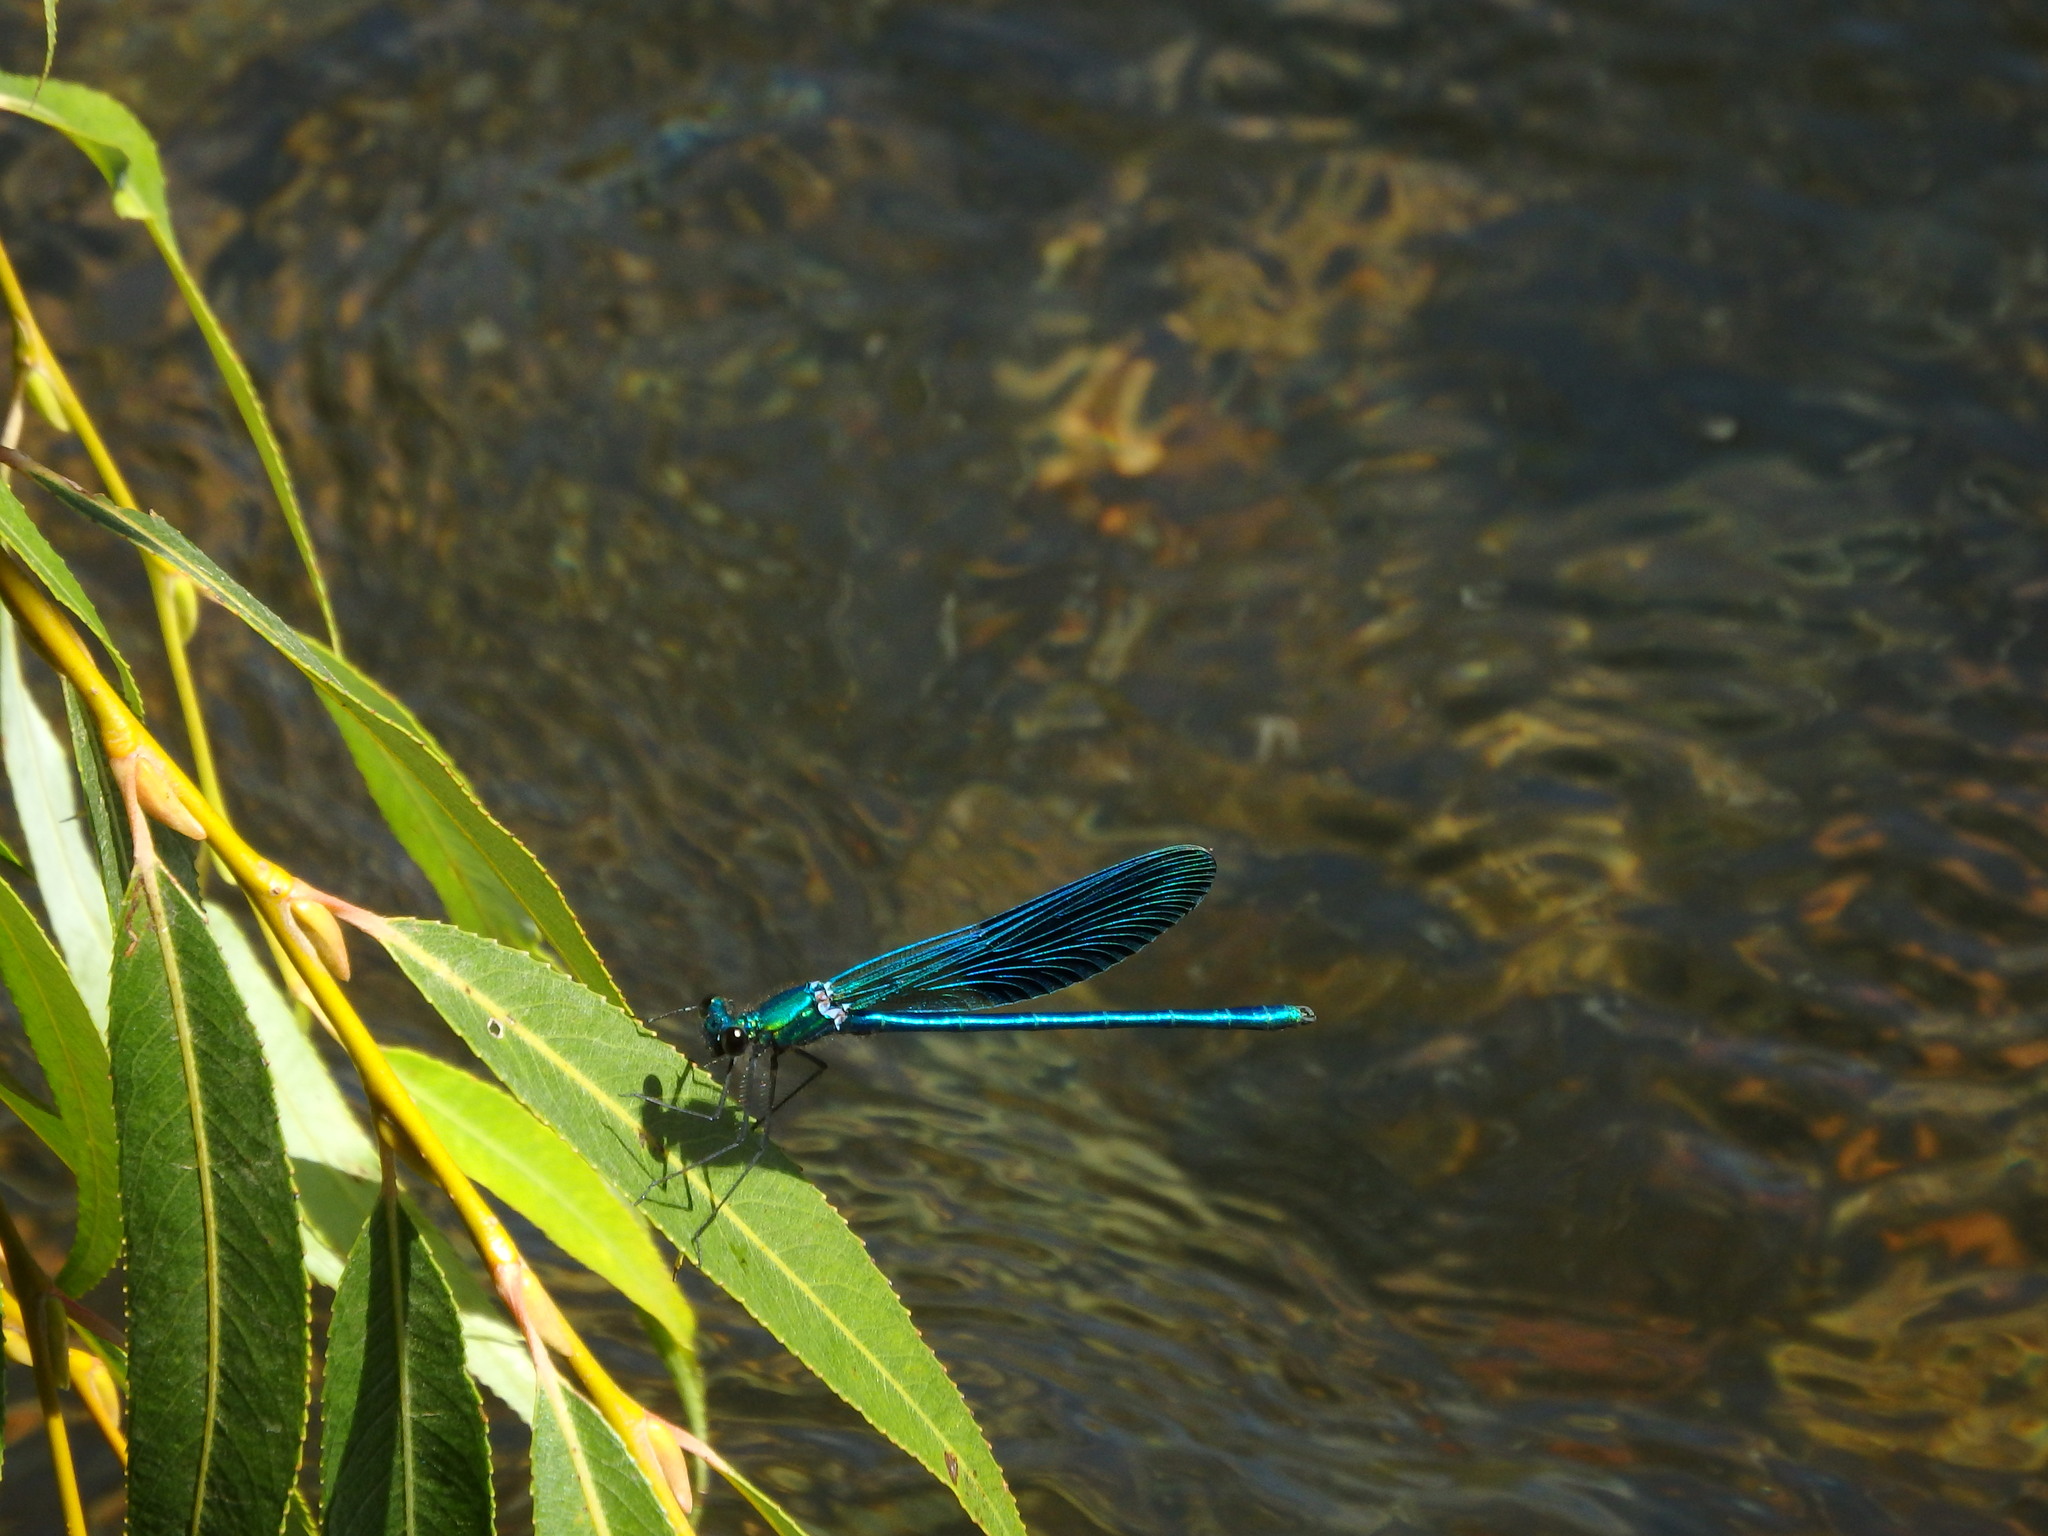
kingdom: Animalia
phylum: Arthropoda
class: Insecta
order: Odonata
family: Calopterygidae
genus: Calopteryx
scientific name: Calopteryx xanthostoma
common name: Western demoiselle
